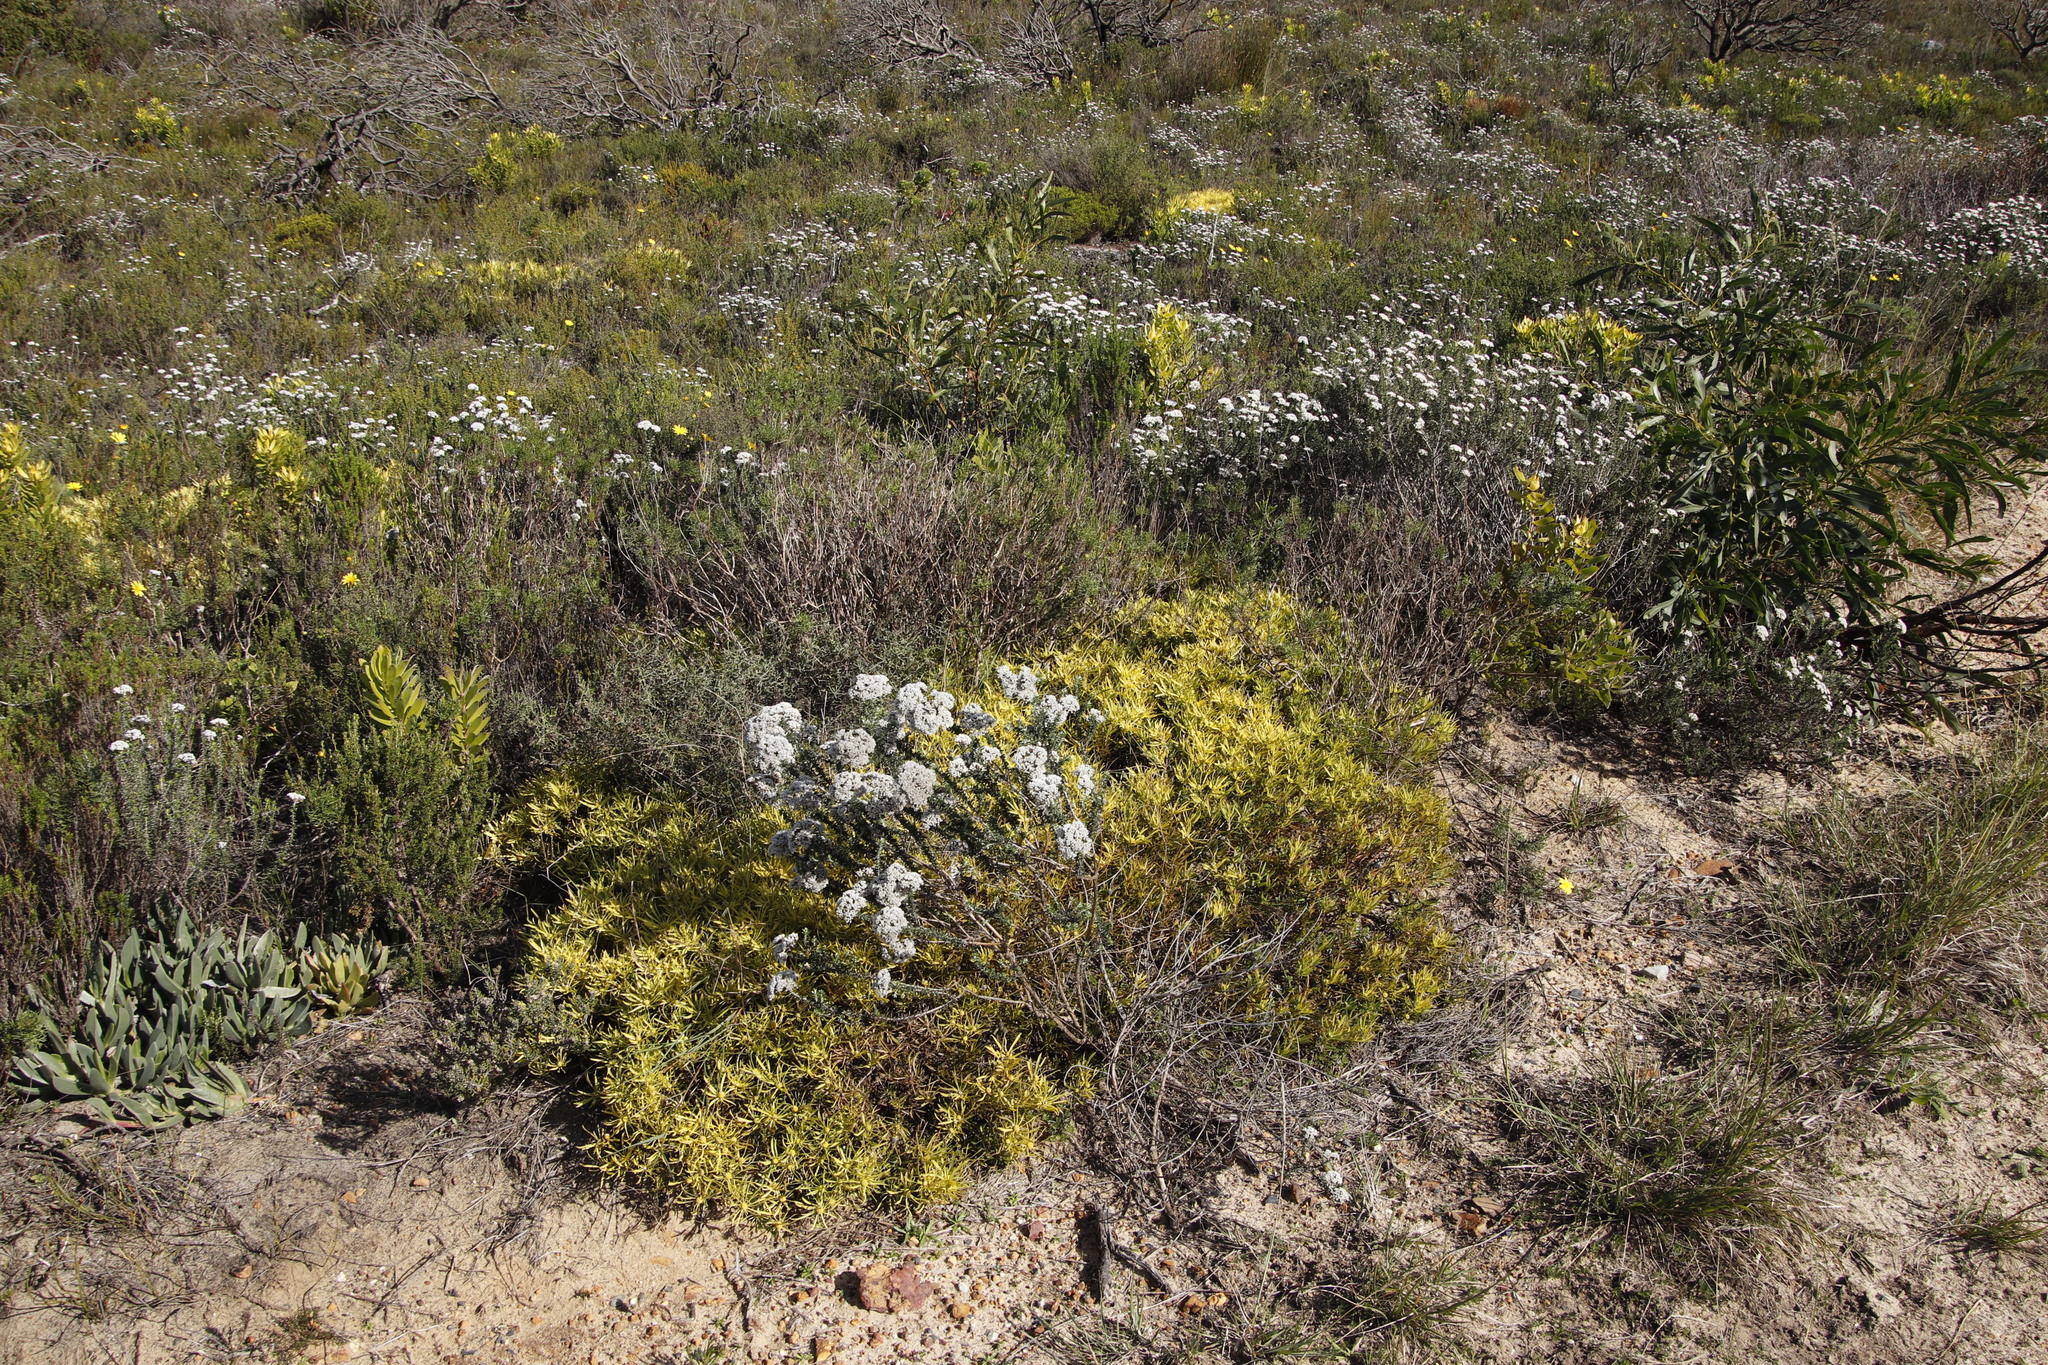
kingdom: Plantae
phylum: Tracheophyta
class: Magnoliopsida
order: Proteales
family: Proteaceae
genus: Leucadendron
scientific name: Leucadendron salignum
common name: Common sunshine conebush
